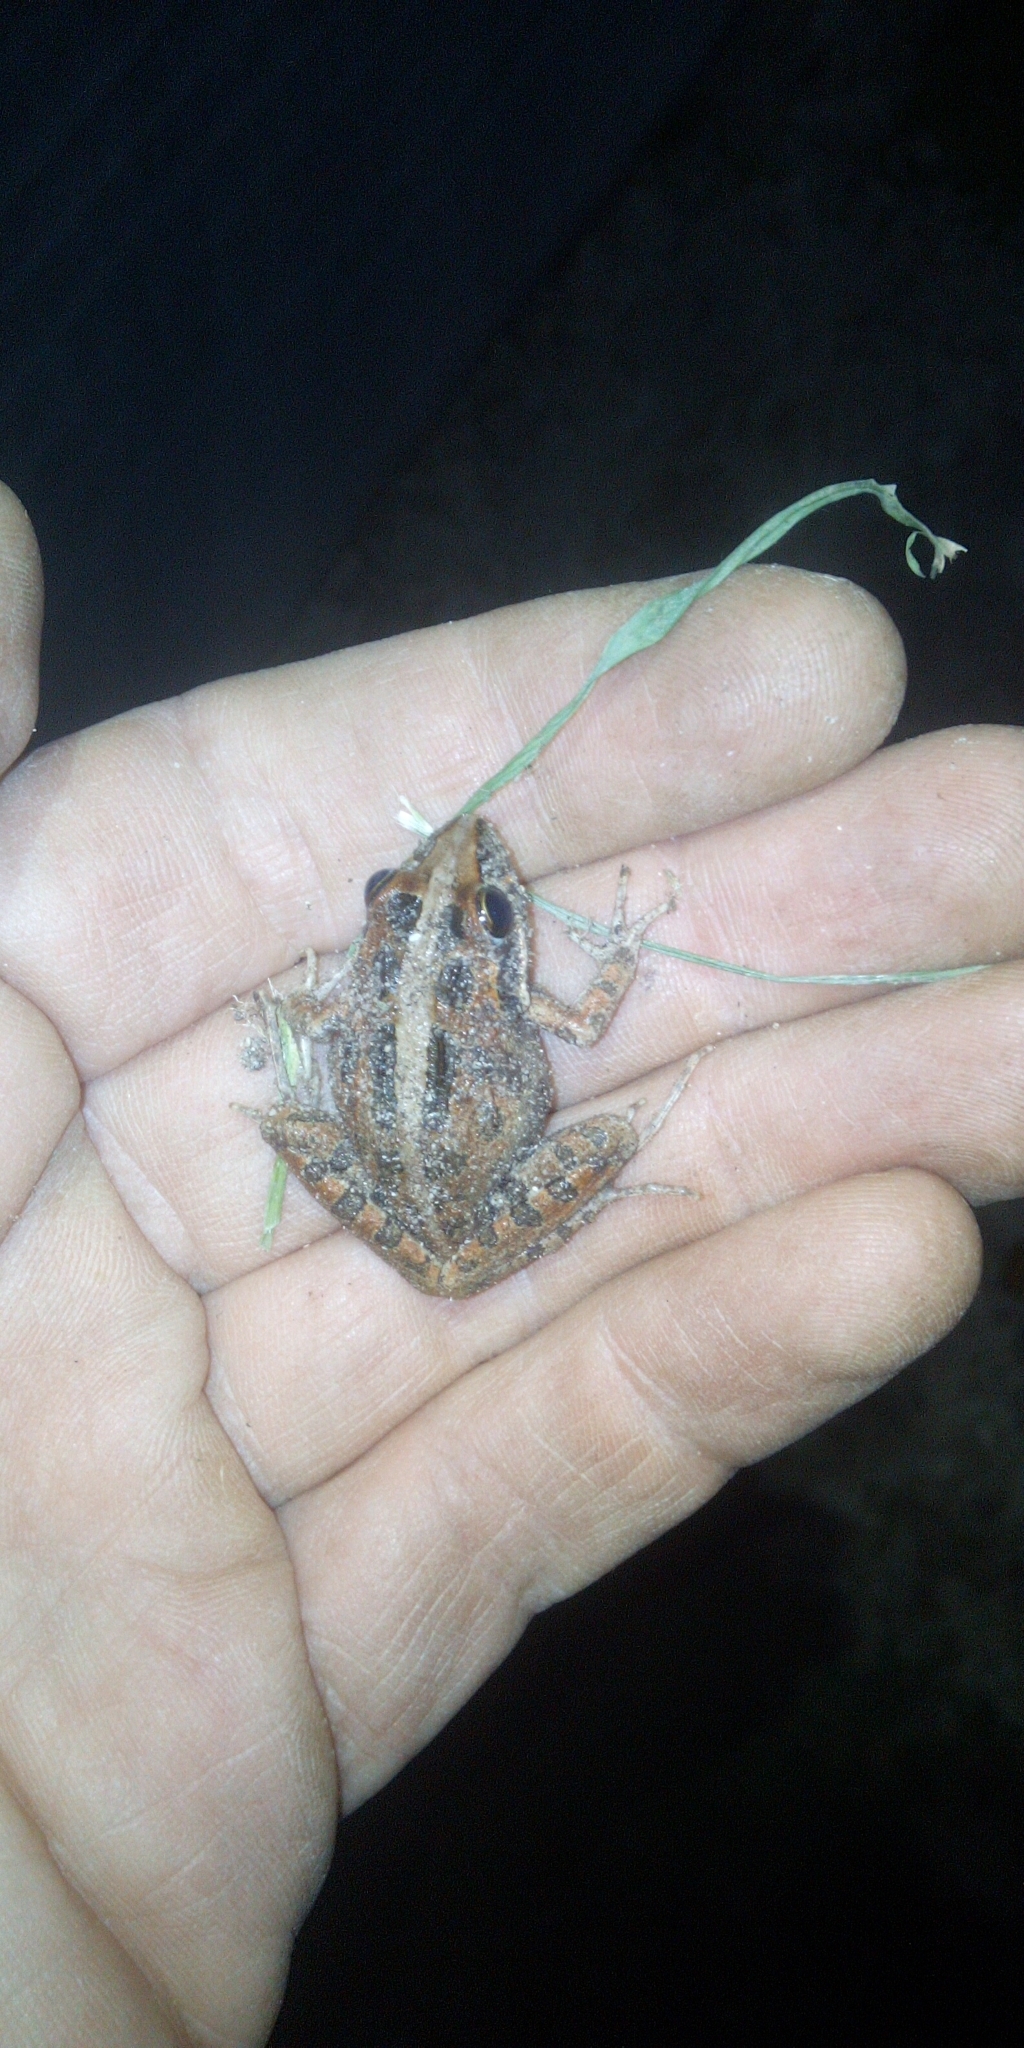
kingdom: Animalia
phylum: Chordata
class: Amphibia
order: Anura
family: Pyxicephalidae
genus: Strongylopus
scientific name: Strongylopus grayii
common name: Gray's stream frog
